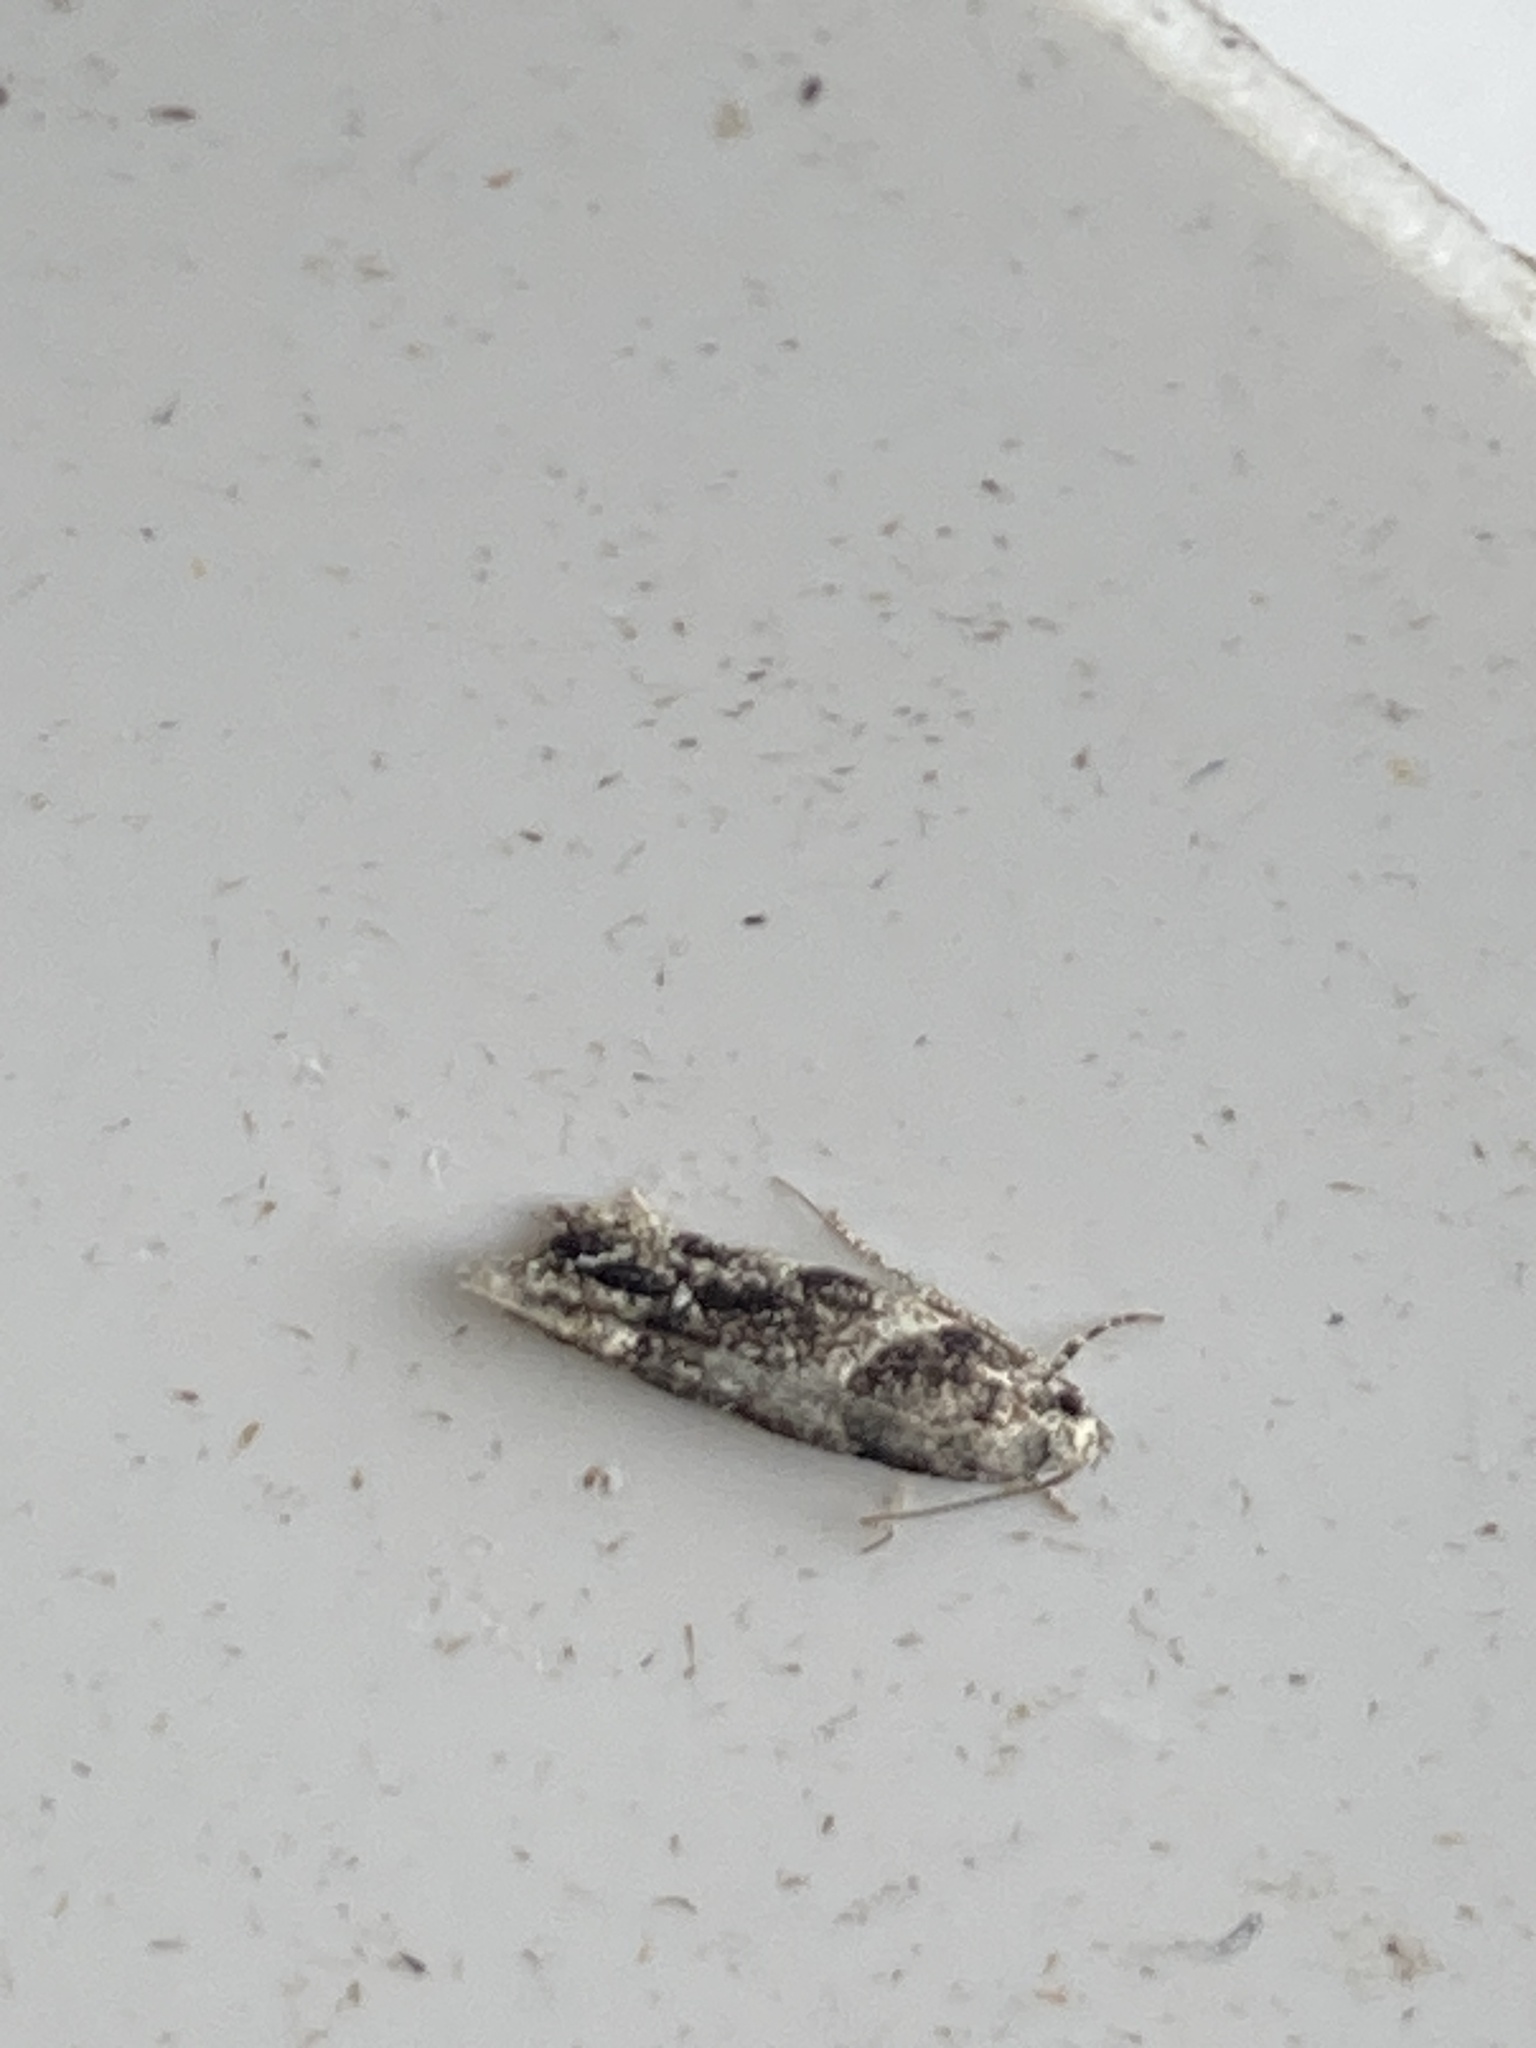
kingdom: Animalia
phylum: Arthropoda
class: Insecta
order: Lepidoptera
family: Blastobasidae
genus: Blastobasis
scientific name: Blastobasis adustella
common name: Dingy dowd
